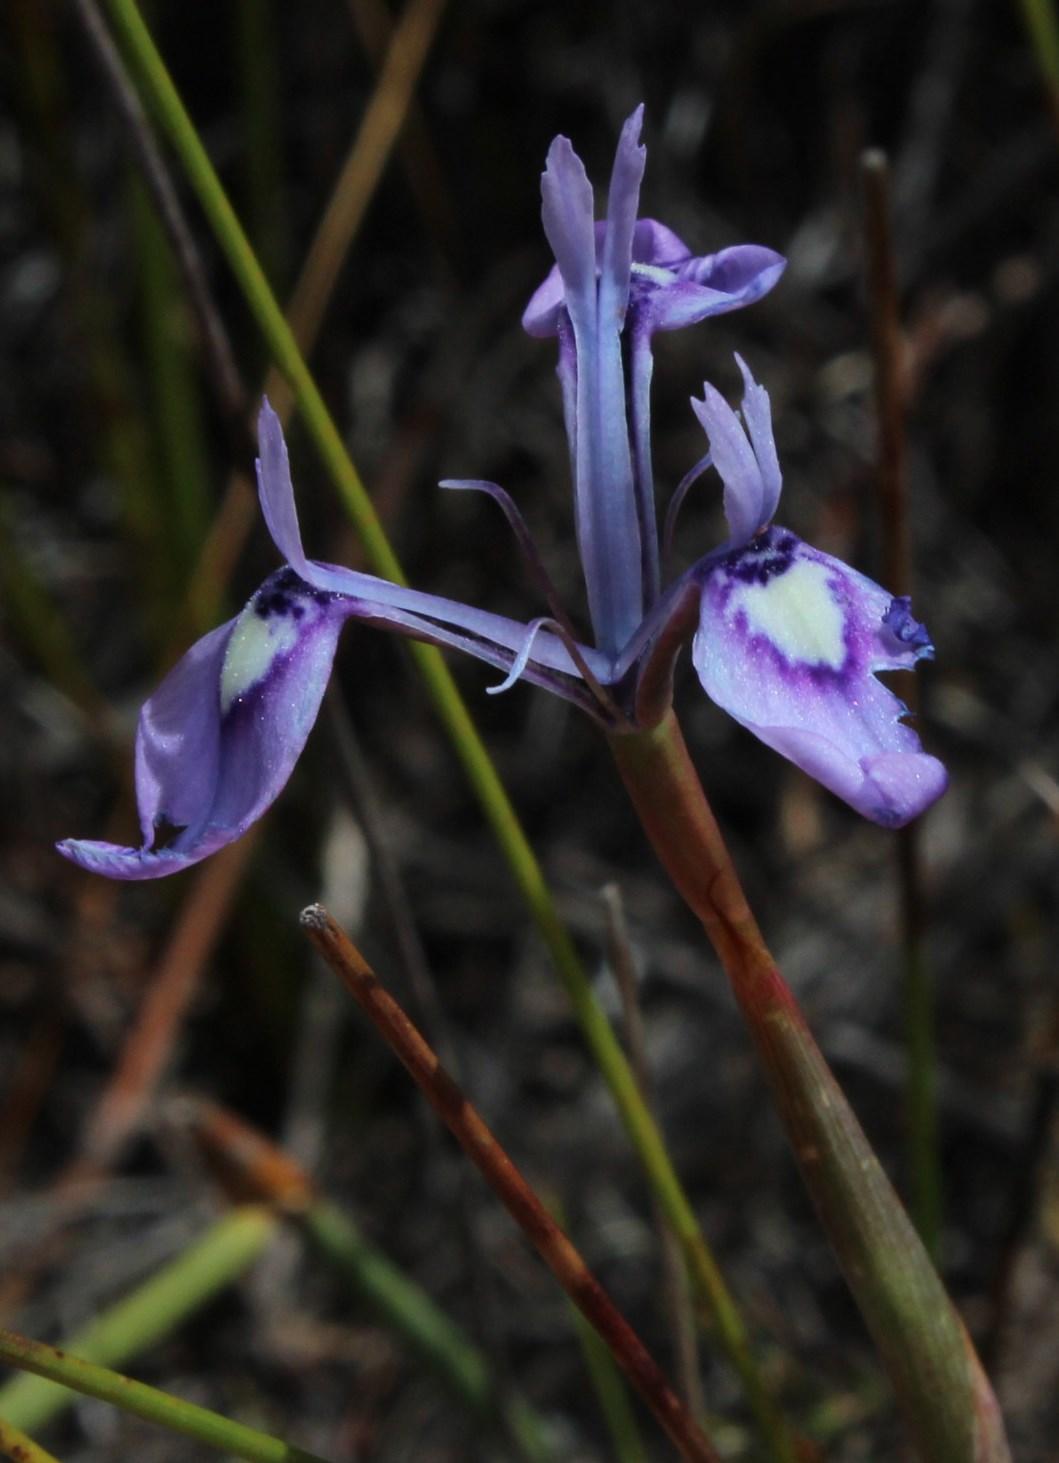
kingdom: Plantae
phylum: Tracheophyta
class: Liliopsida
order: Asparagales
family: Iridaceae
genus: Moraea
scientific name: Moraea tripetala
